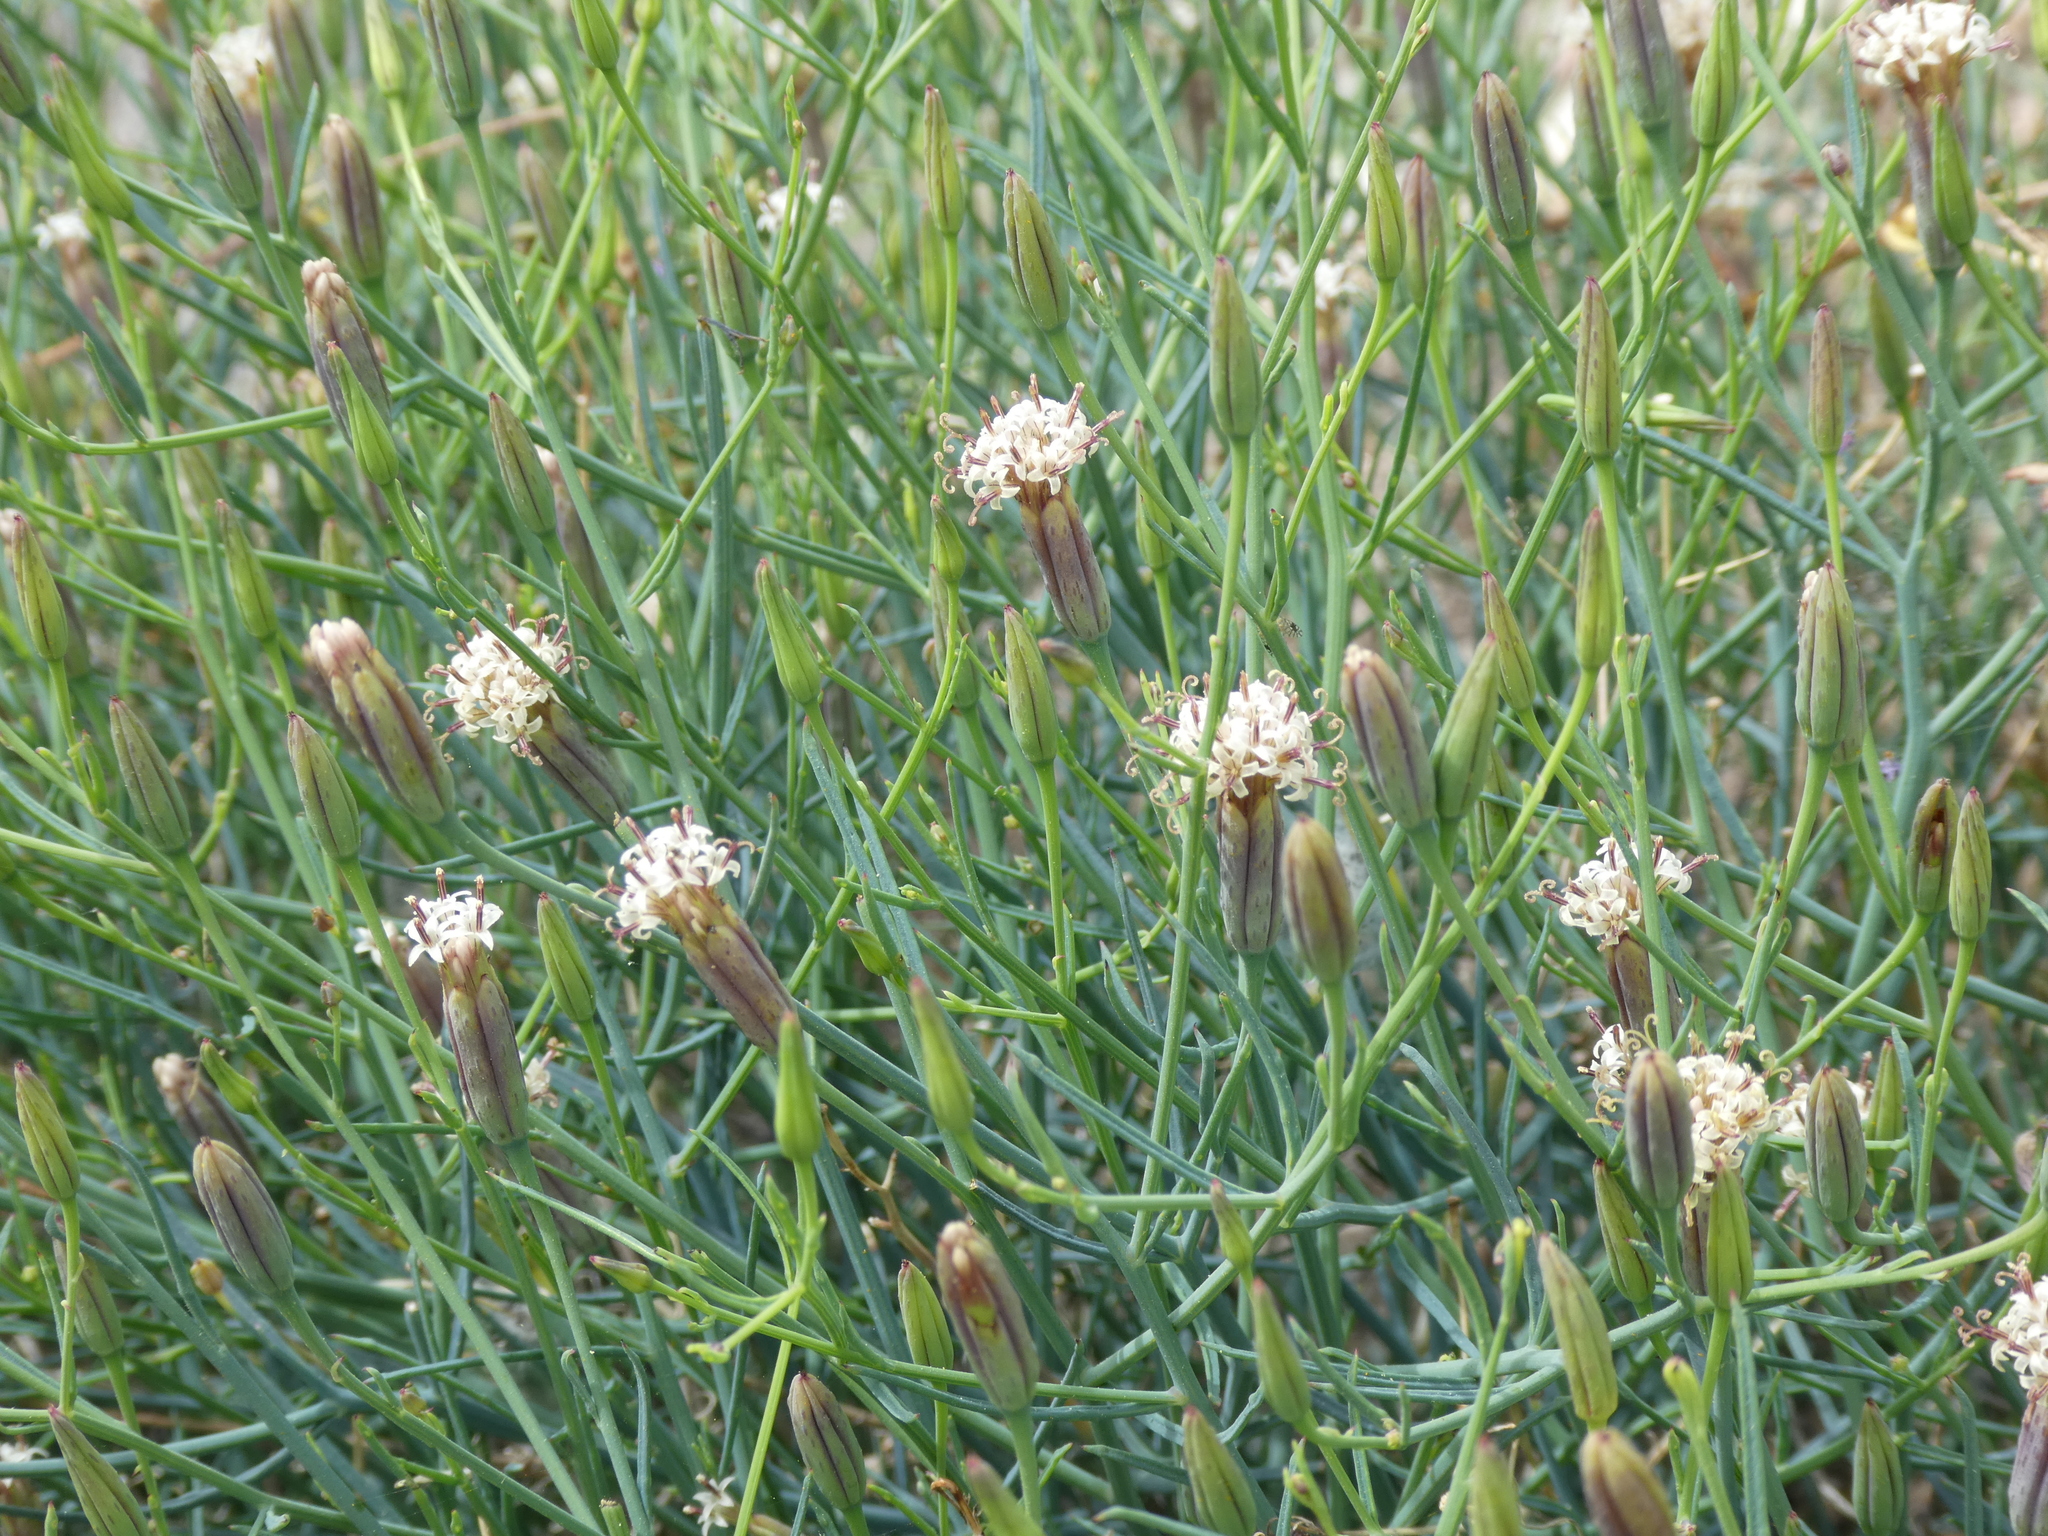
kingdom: Plantae
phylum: Tracheophyta
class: Magnoliopsida
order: Asterales
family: Asteraceae
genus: Porophyllum
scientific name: Porophyllum gracile
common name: Odora
